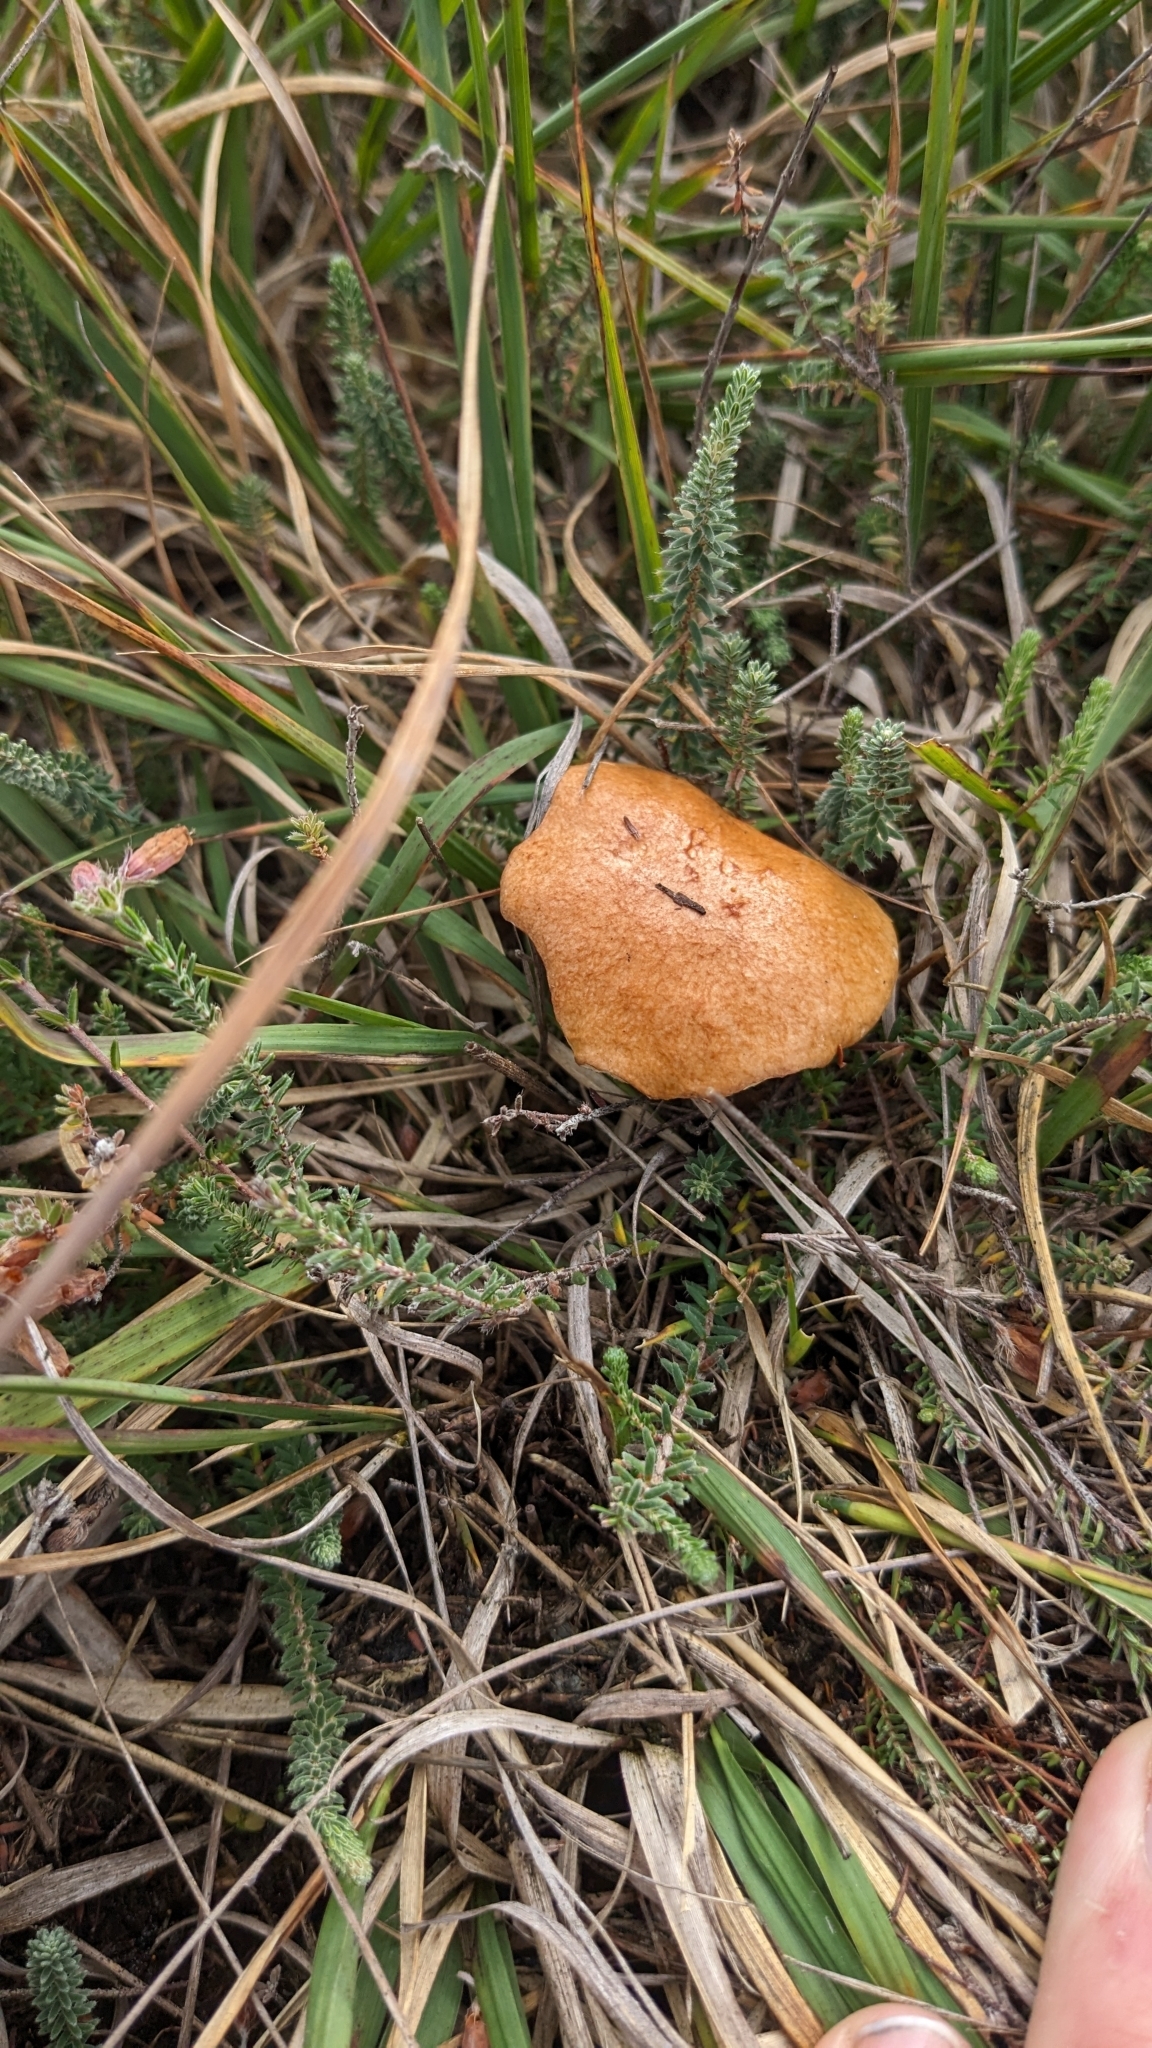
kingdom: Fungi
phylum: Basidiomycota
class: Agaricomycetes
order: Boletales
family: Suillaceae
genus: Suillus
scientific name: Suillus bovinus
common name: Bovine bolete
